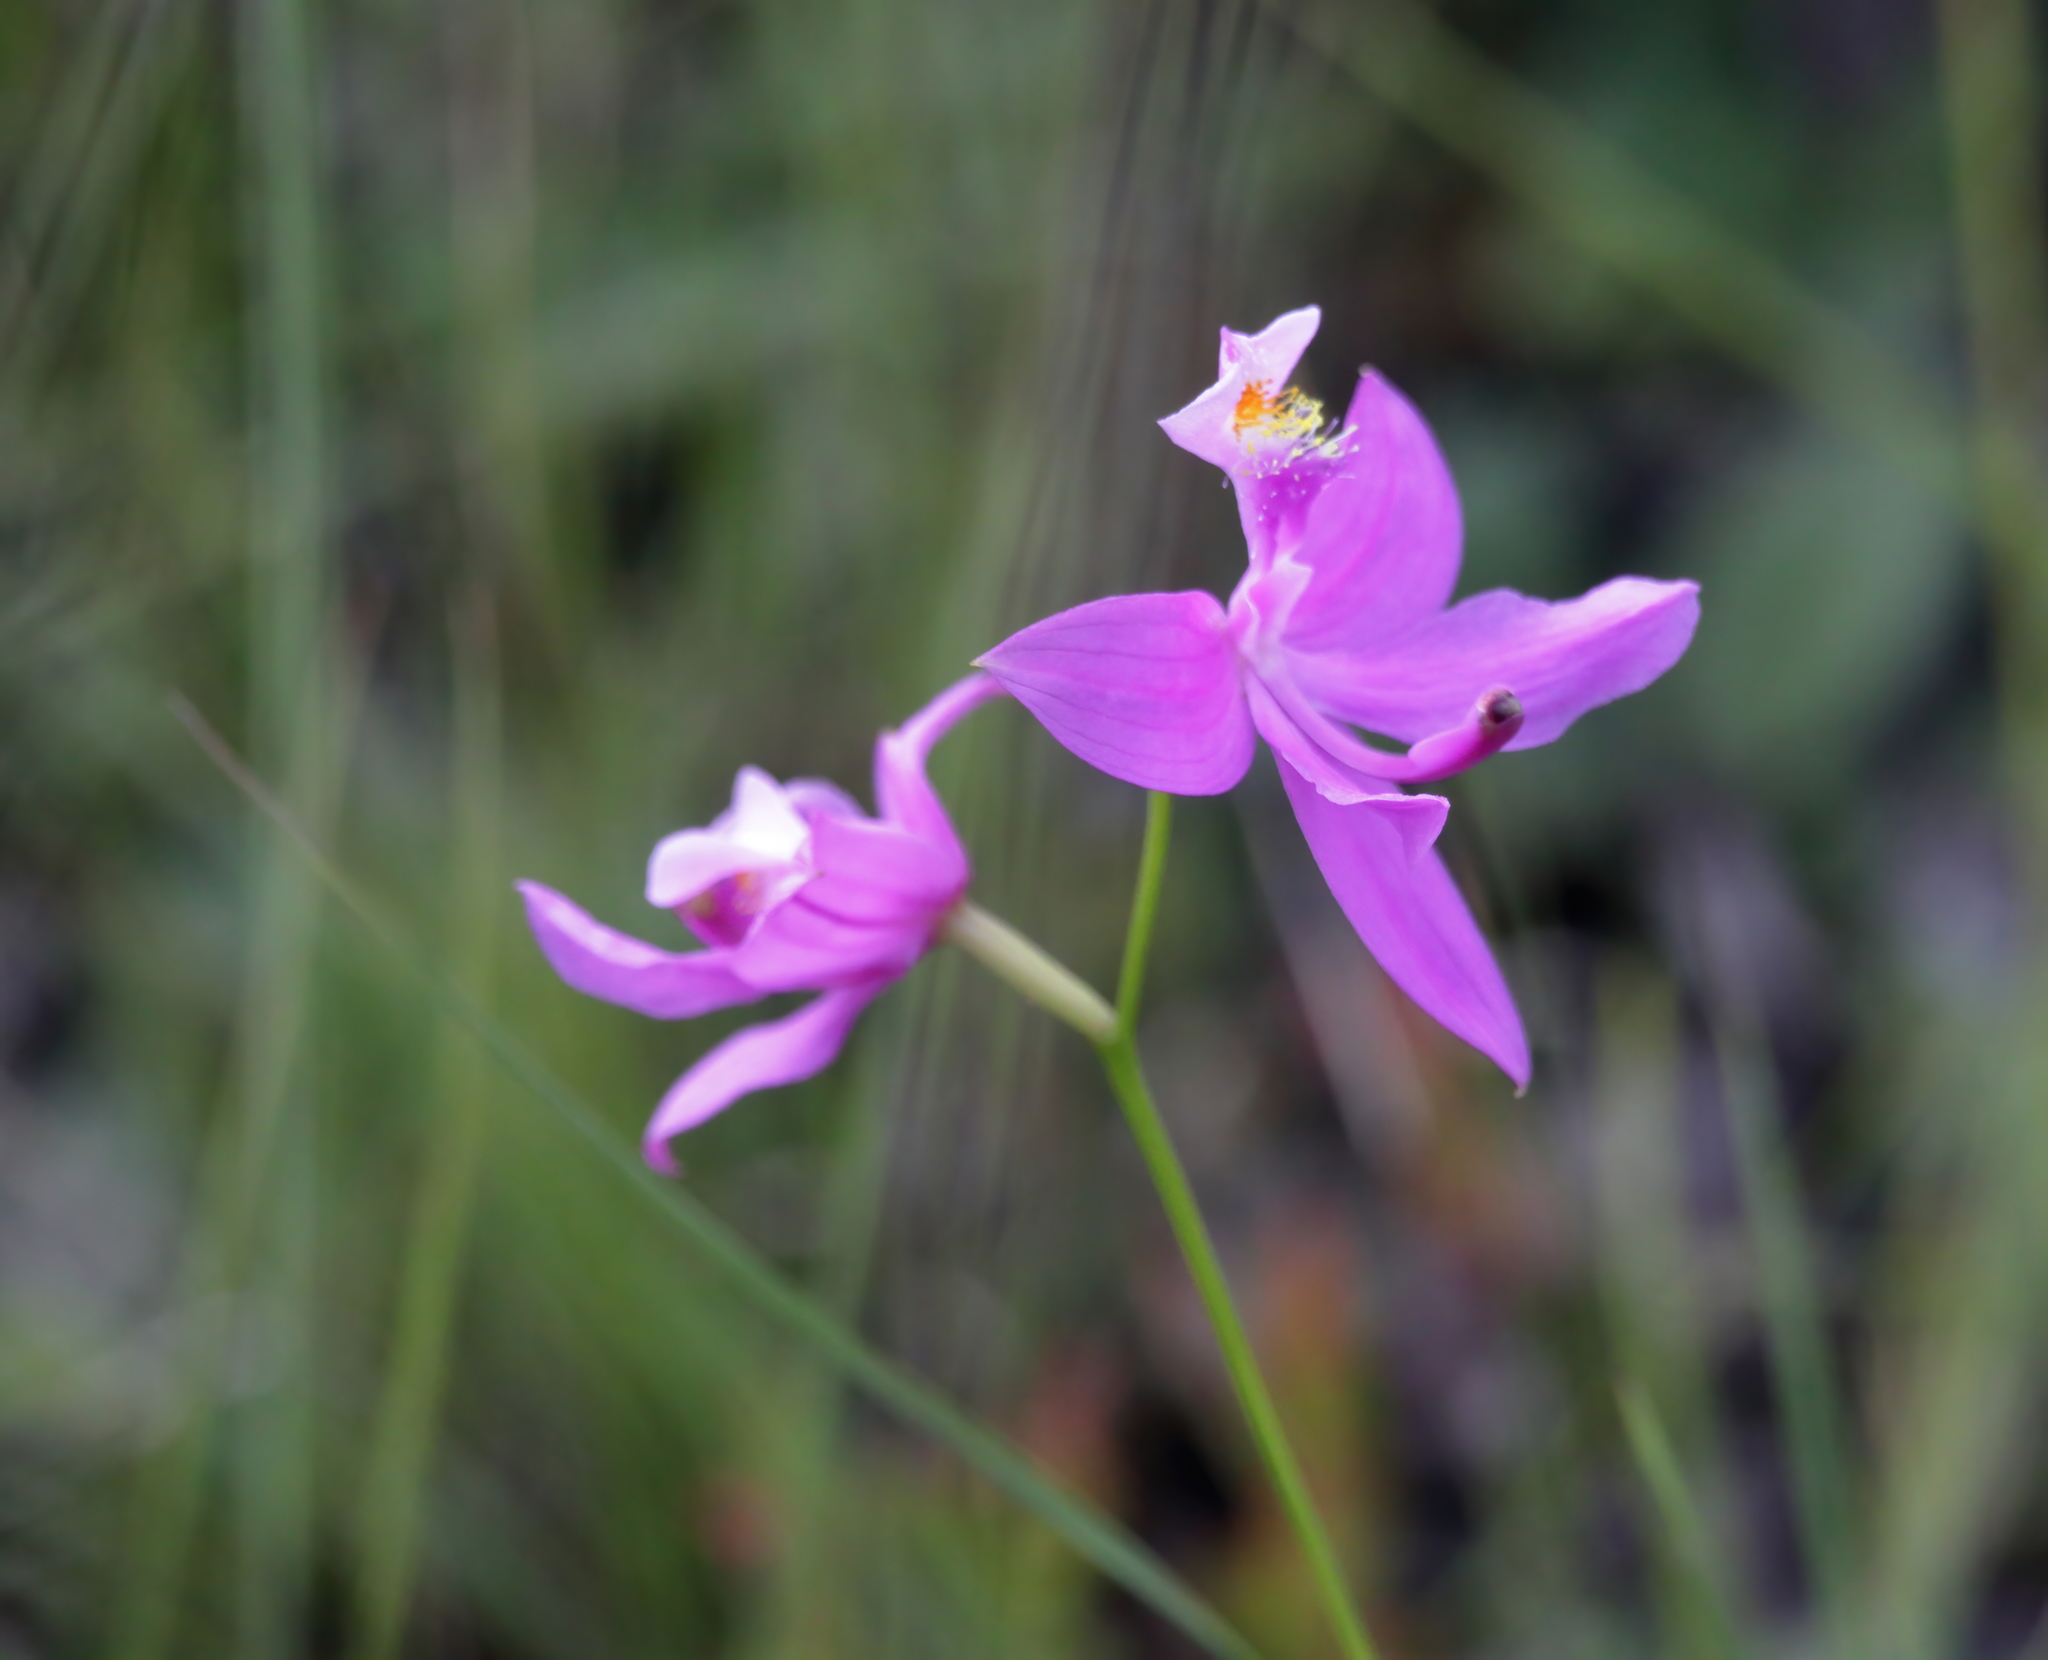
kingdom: Plantae
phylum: Tracheophyta
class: Liliopsida
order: Asparagales
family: Orchidaceae
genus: Calopogon
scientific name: Calopogon tuberosus
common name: Grass-pink
